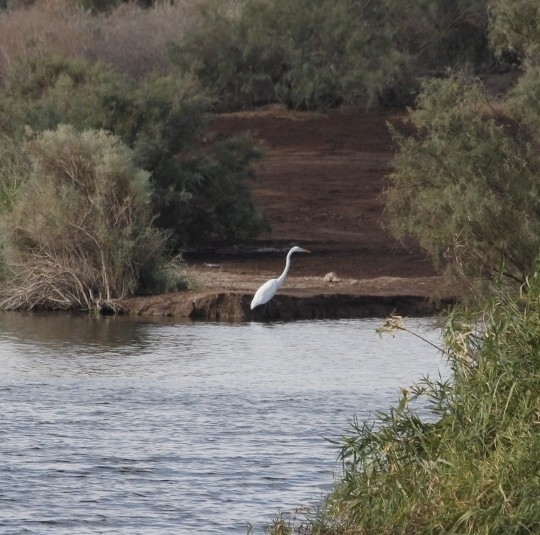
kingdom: Animalia
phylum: Chordata
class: Aves
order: Pelecaniformes
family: Ardeidae
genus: Ardea
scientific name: Ardea alba
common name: Great egret
